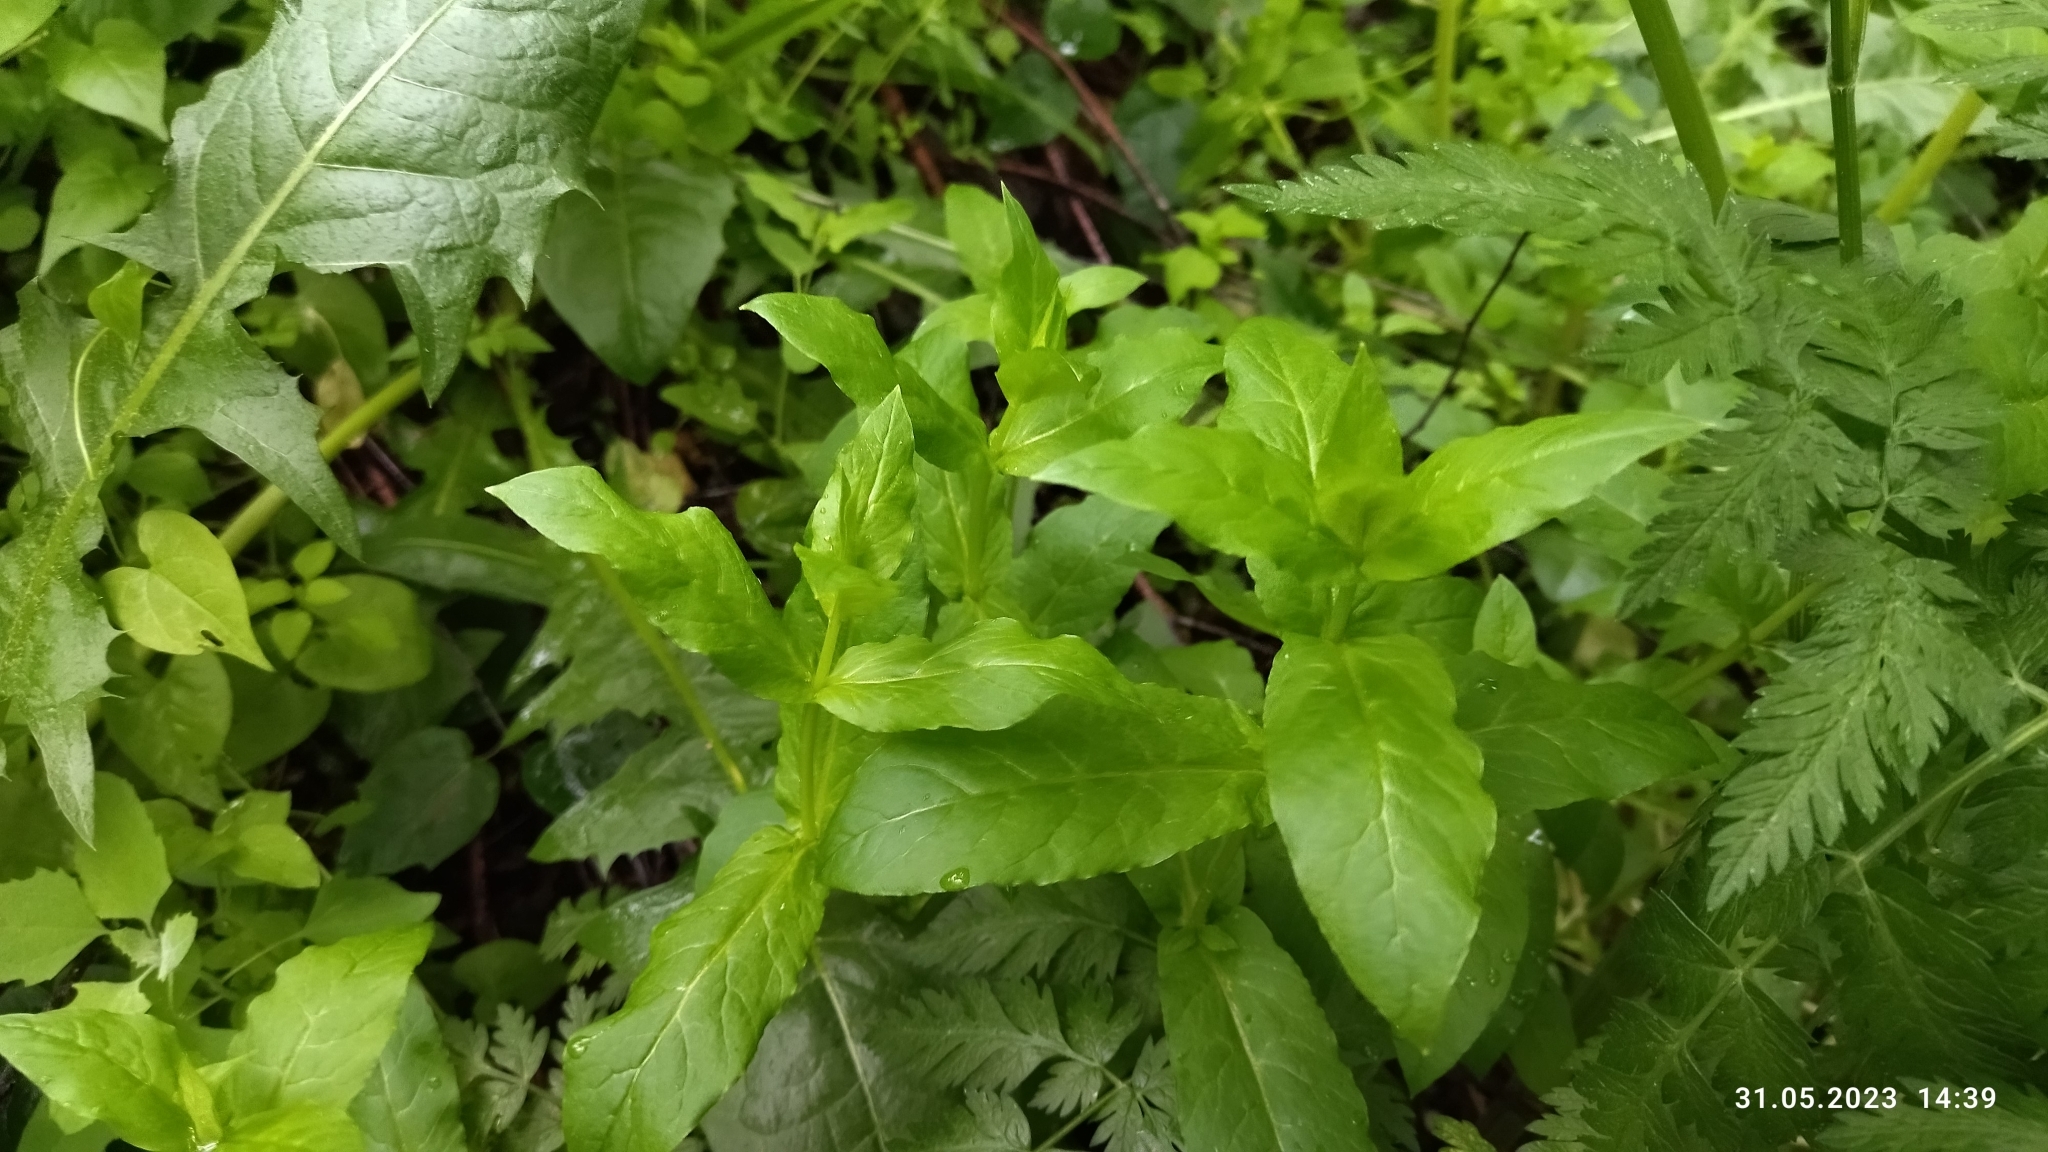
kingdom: Plantae
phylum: Tracheophyta
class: Magnoliopsida
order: Caryophyllales
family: Caryophyllaceae
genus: Stellaria
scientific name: Stellaria aquatica
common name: Water chickweed
